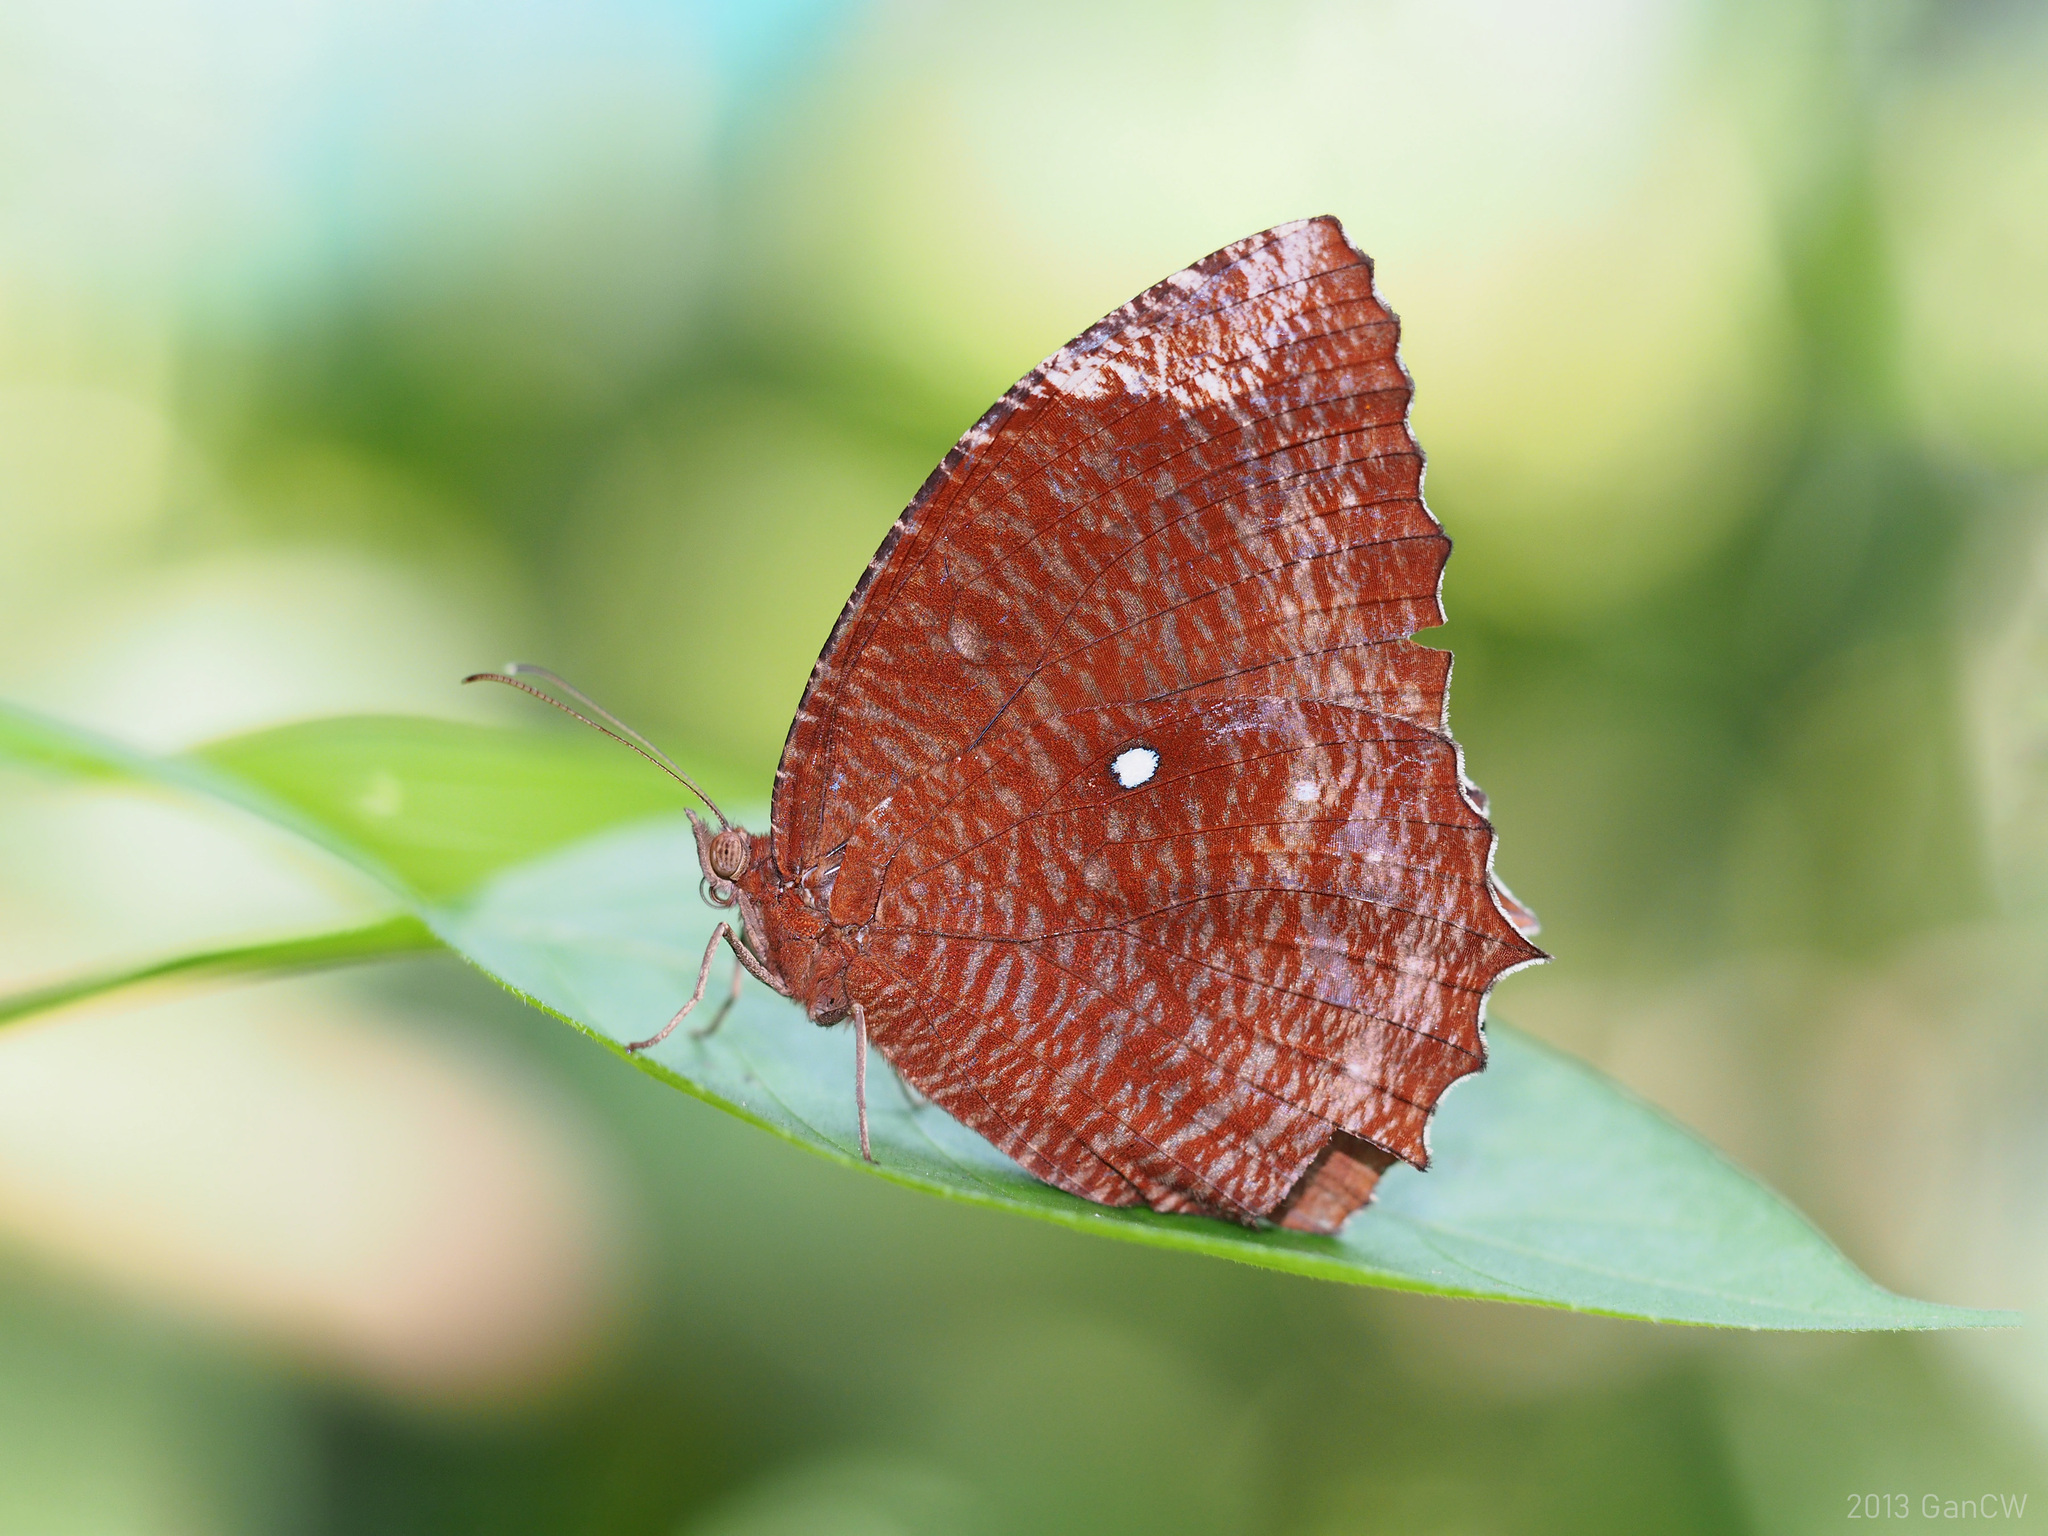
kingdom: Animalia
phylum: Arthropoda
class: Insecta
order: Lepidoptera
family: Nymphalidae
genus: Elymnias
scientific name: Elymnias hypermnestra
